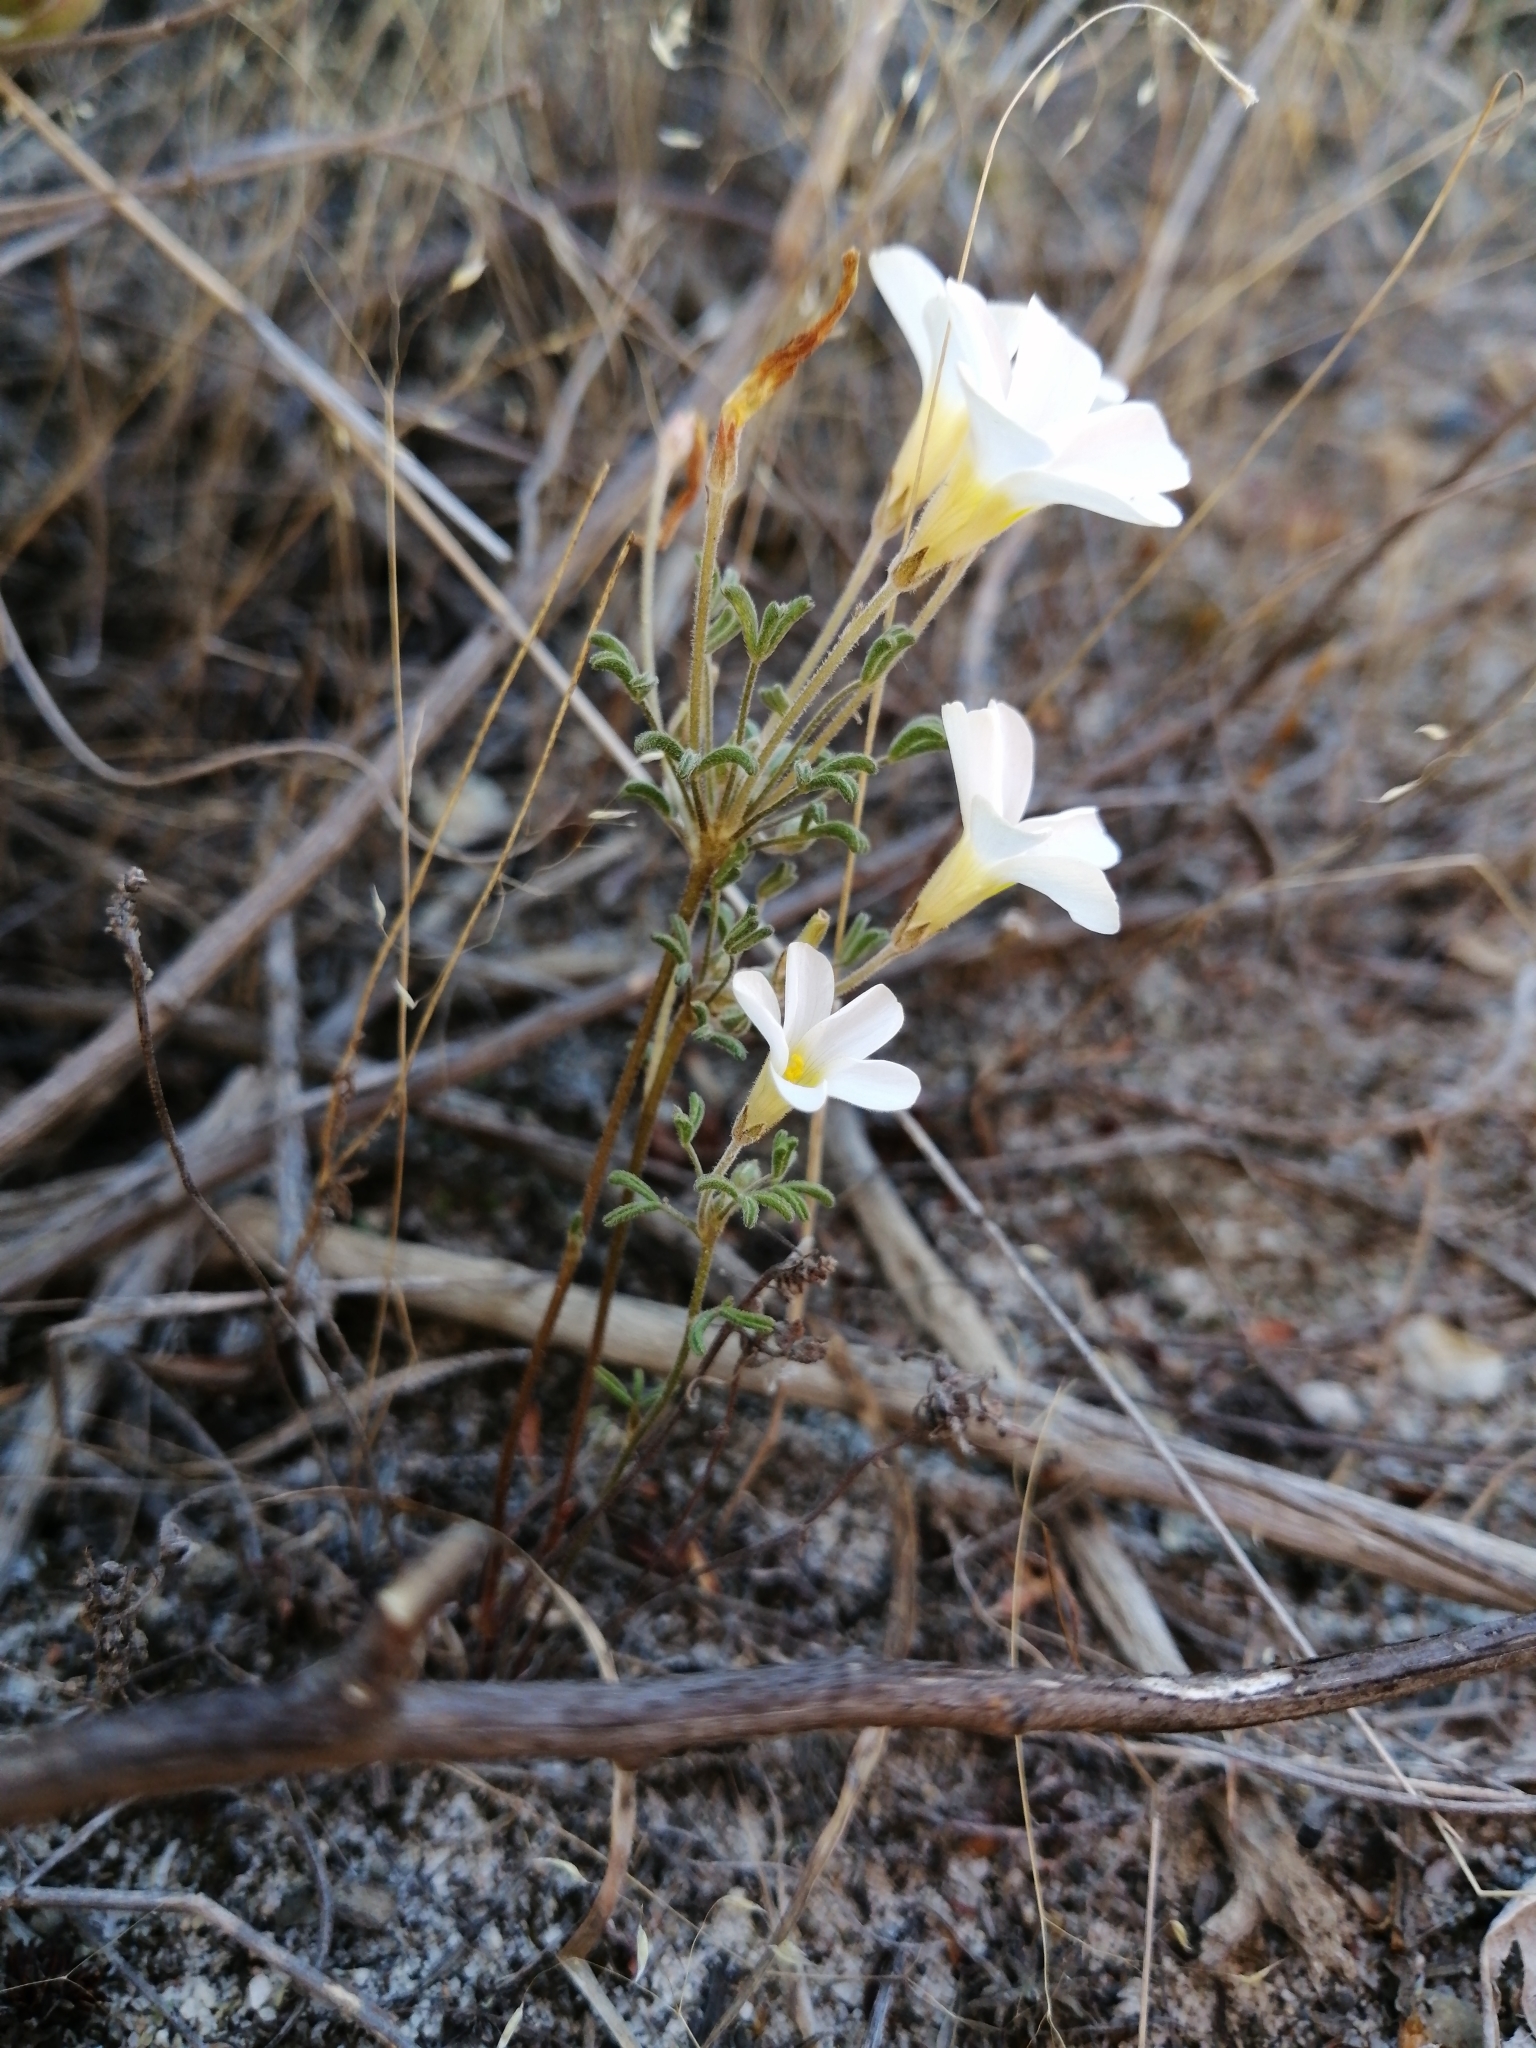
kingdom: Plantae
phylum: Tracheophyta
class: Magnoliopsida
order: Oxalidales
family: Oxalidaceae
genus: Oxalis
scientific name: Oxalis ciliaris
